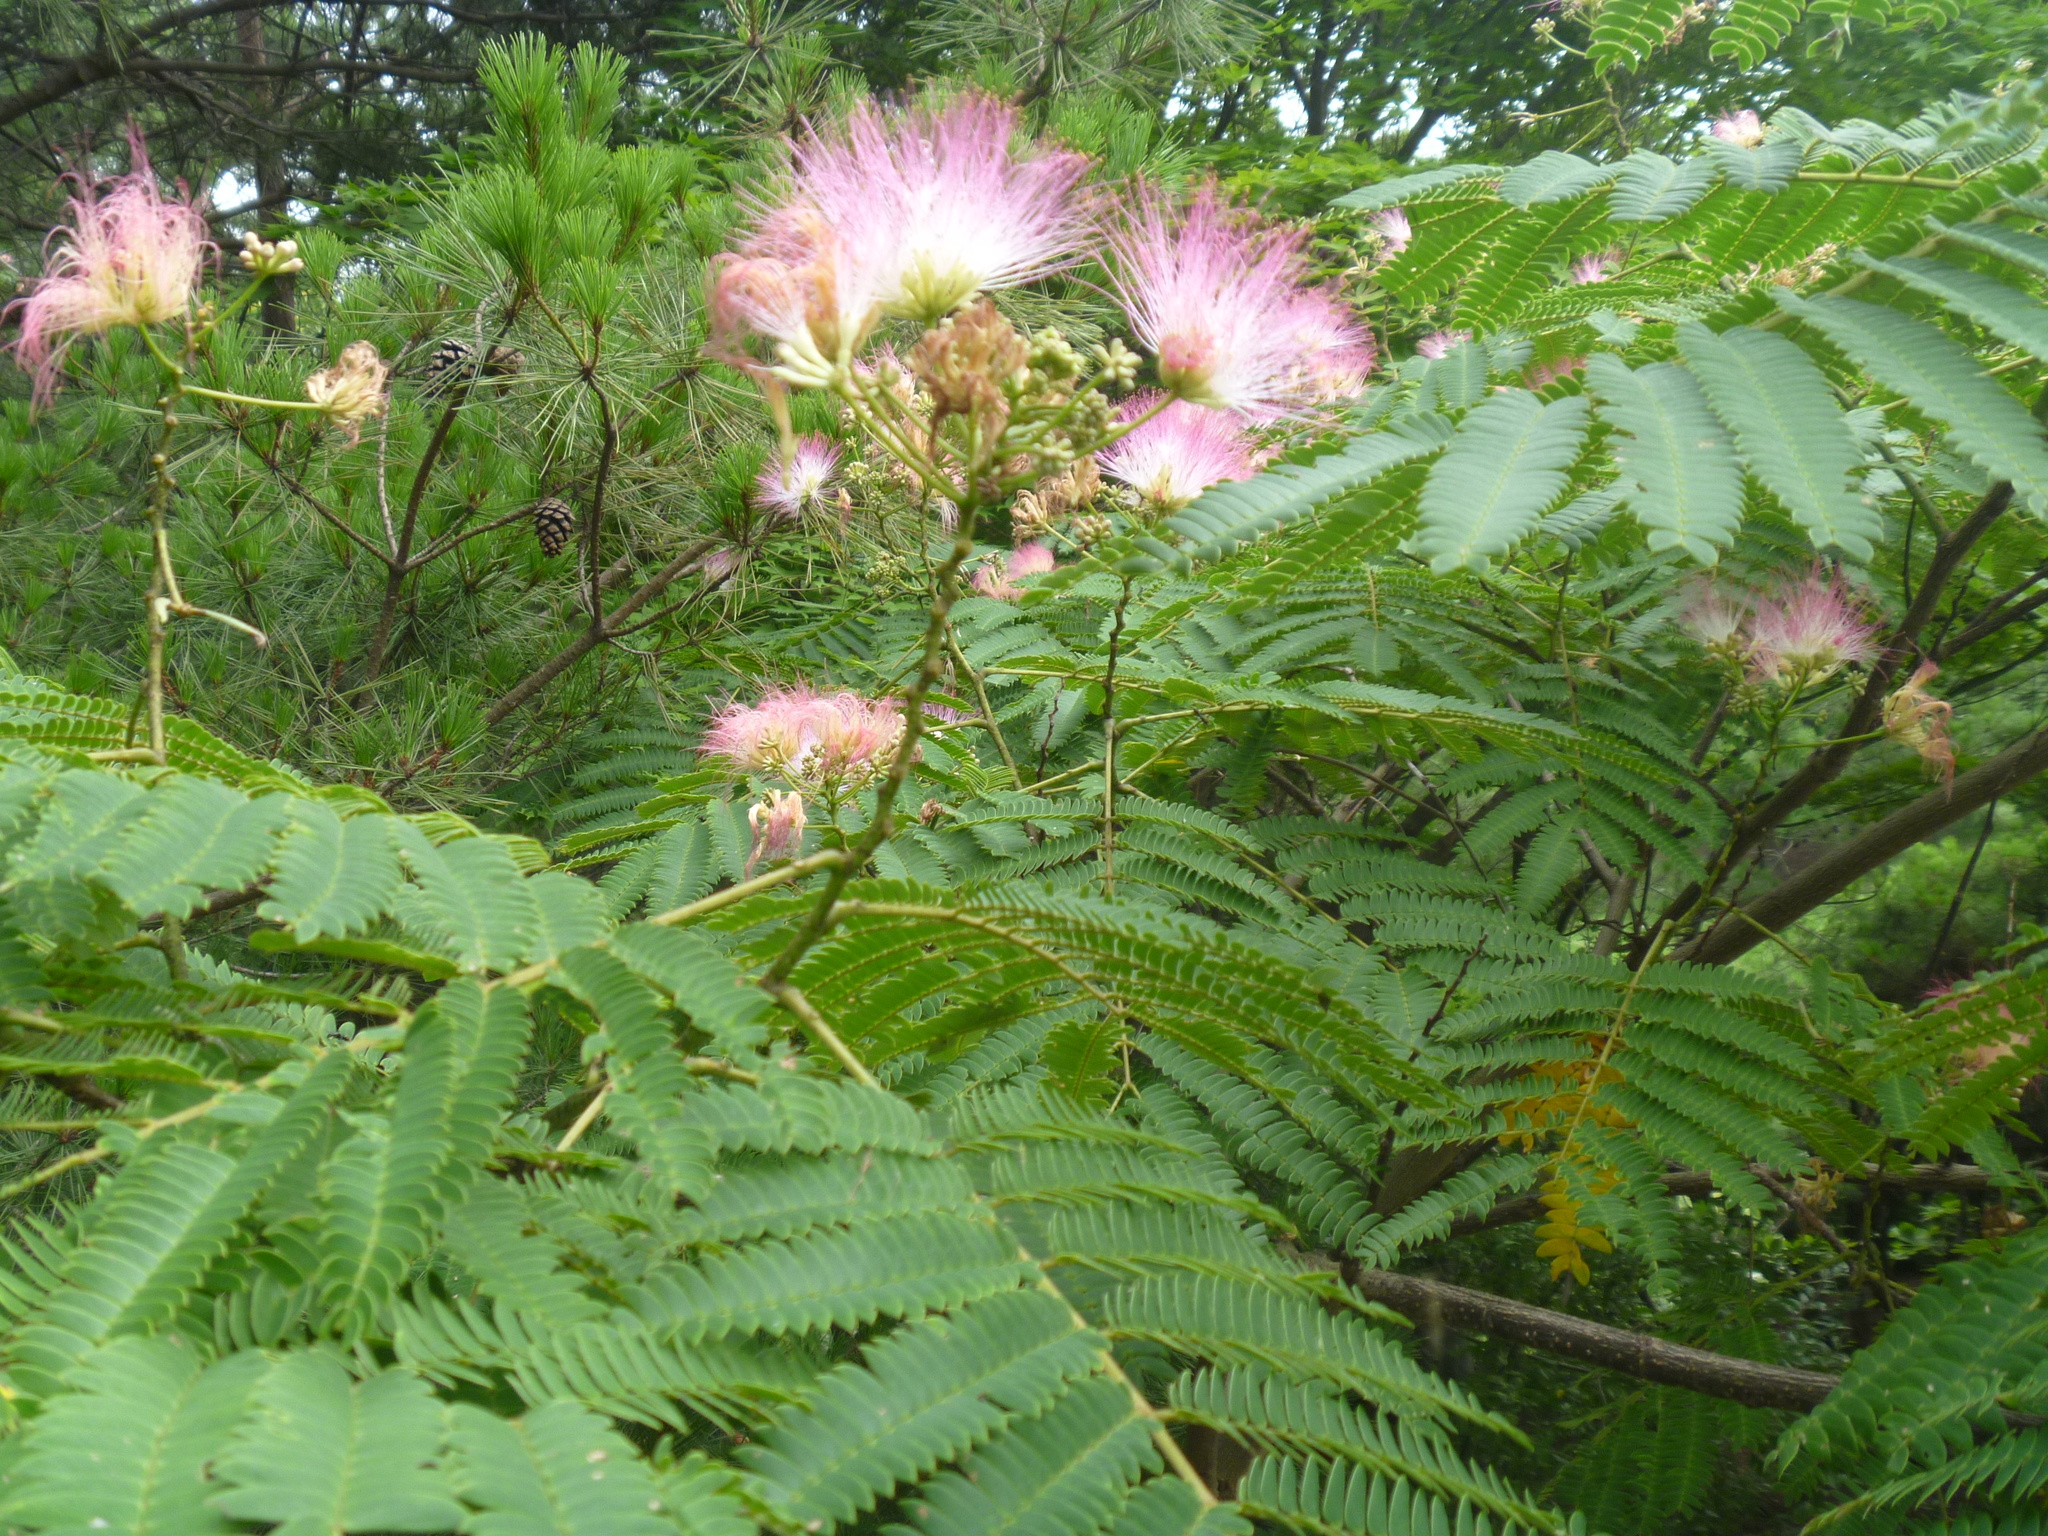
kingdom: Plantae
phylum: Tracheophyta
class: Magnoliopsida
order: Fabales
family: Fabaceae
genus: Albizia
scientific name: Albizia julibrissin
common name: Silktree
